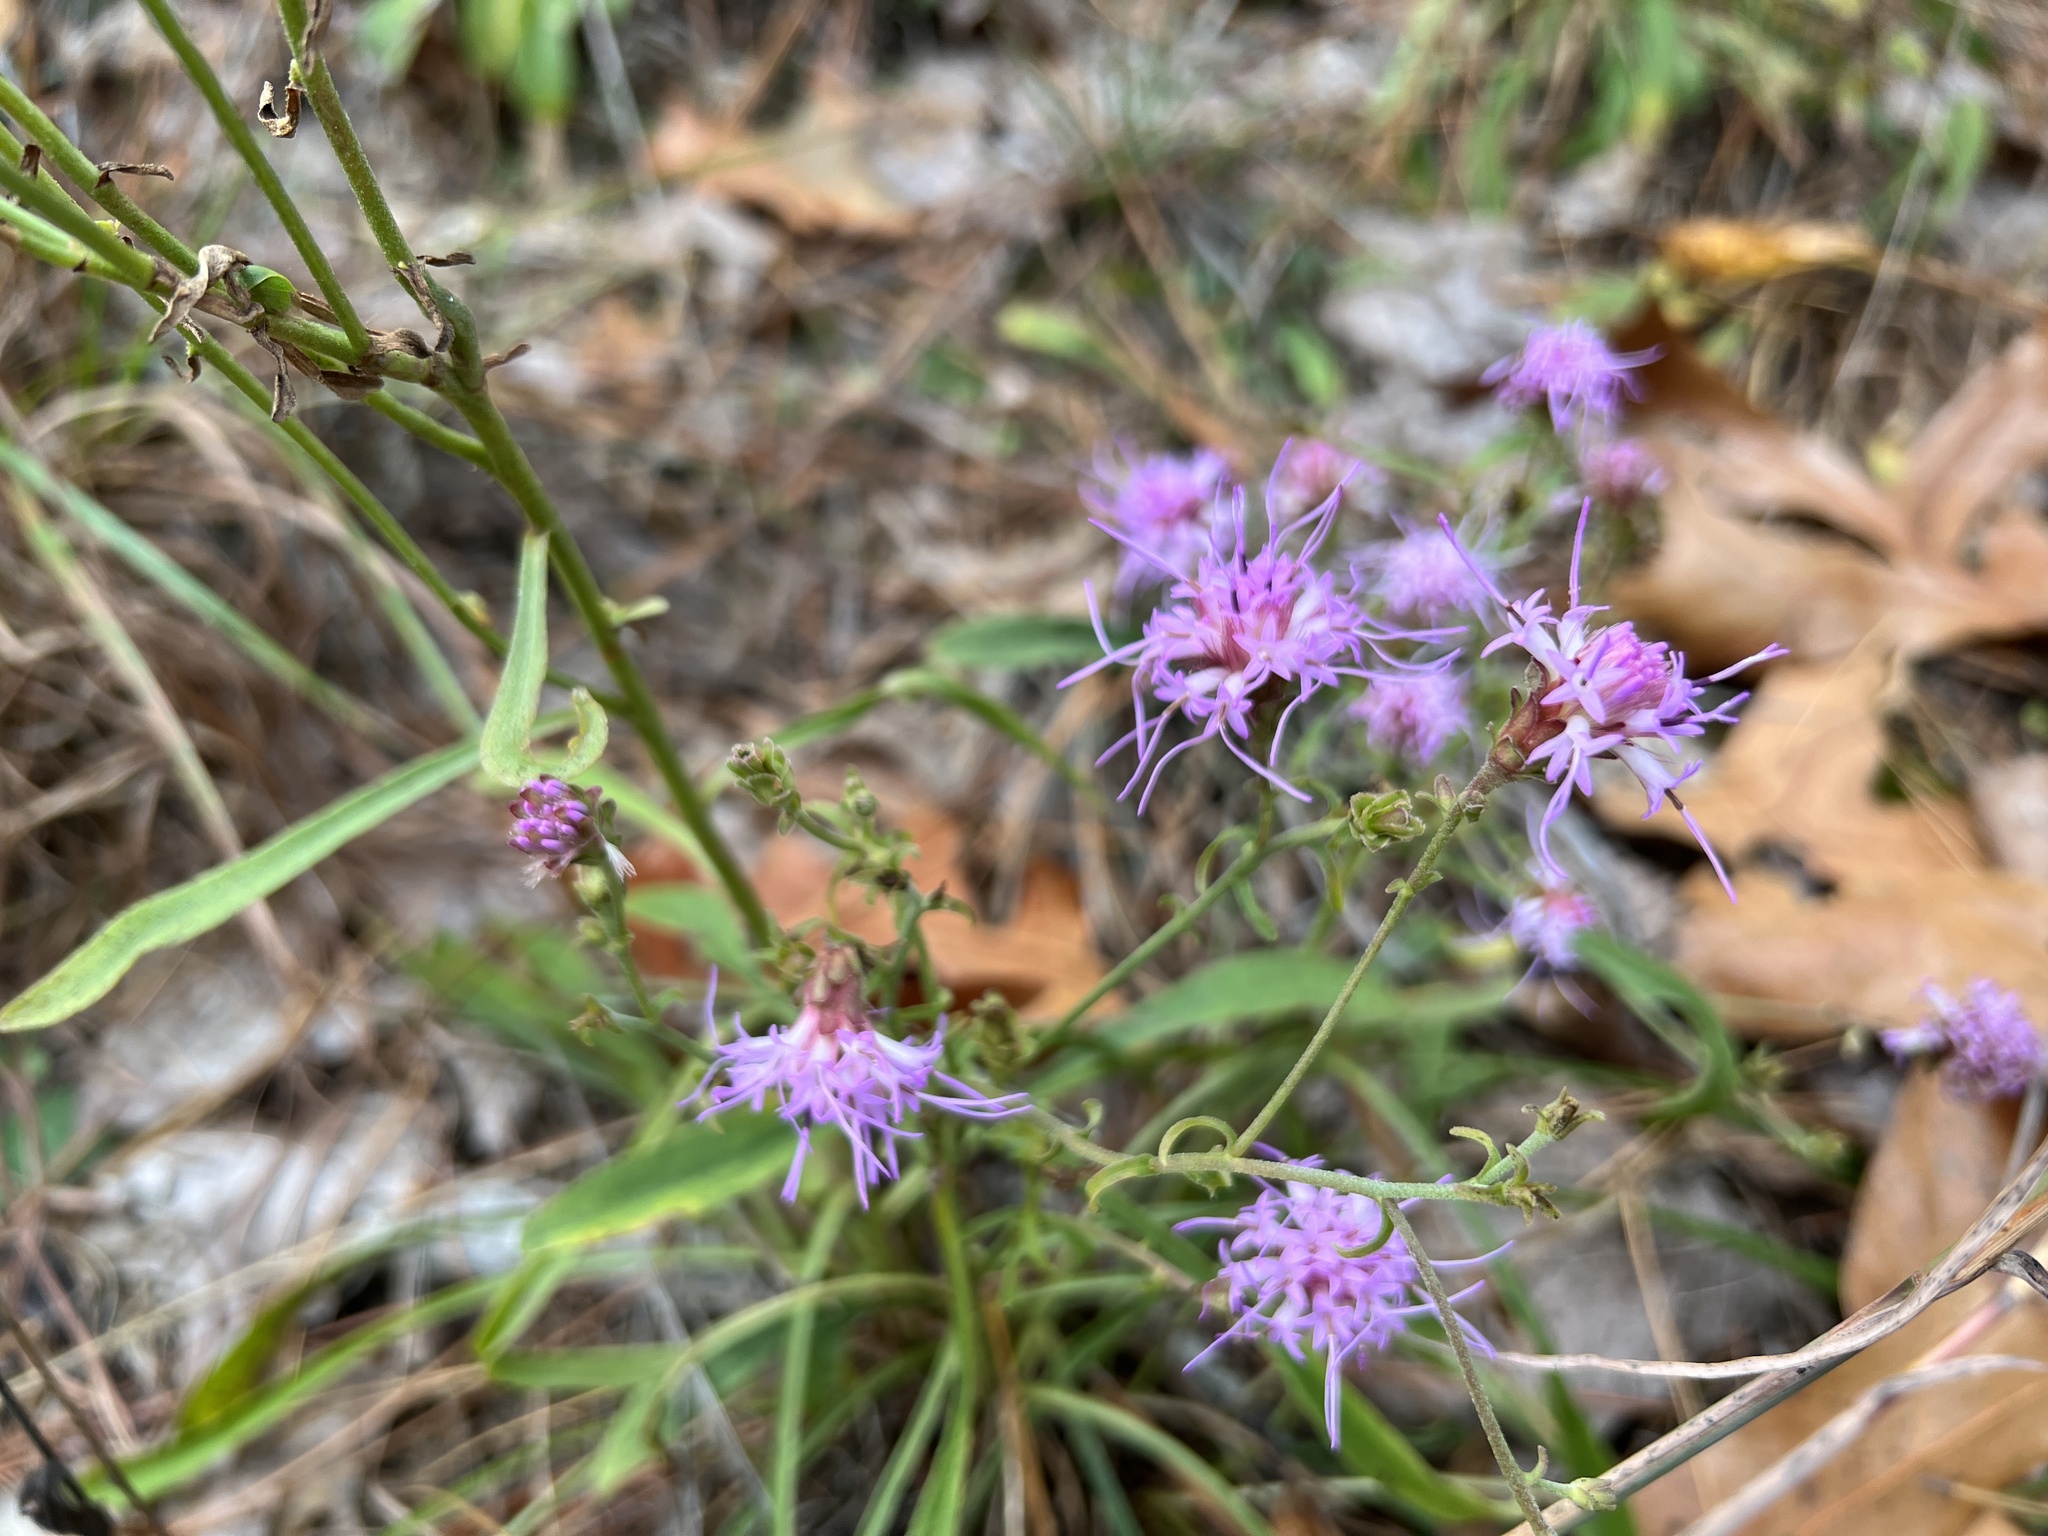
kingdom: Plantae
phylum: Tracheophyta
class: Magnoliopsida
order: Asterales
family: Asteraceae
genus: Carphephorus
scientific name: Carphephorus bellidifolius
